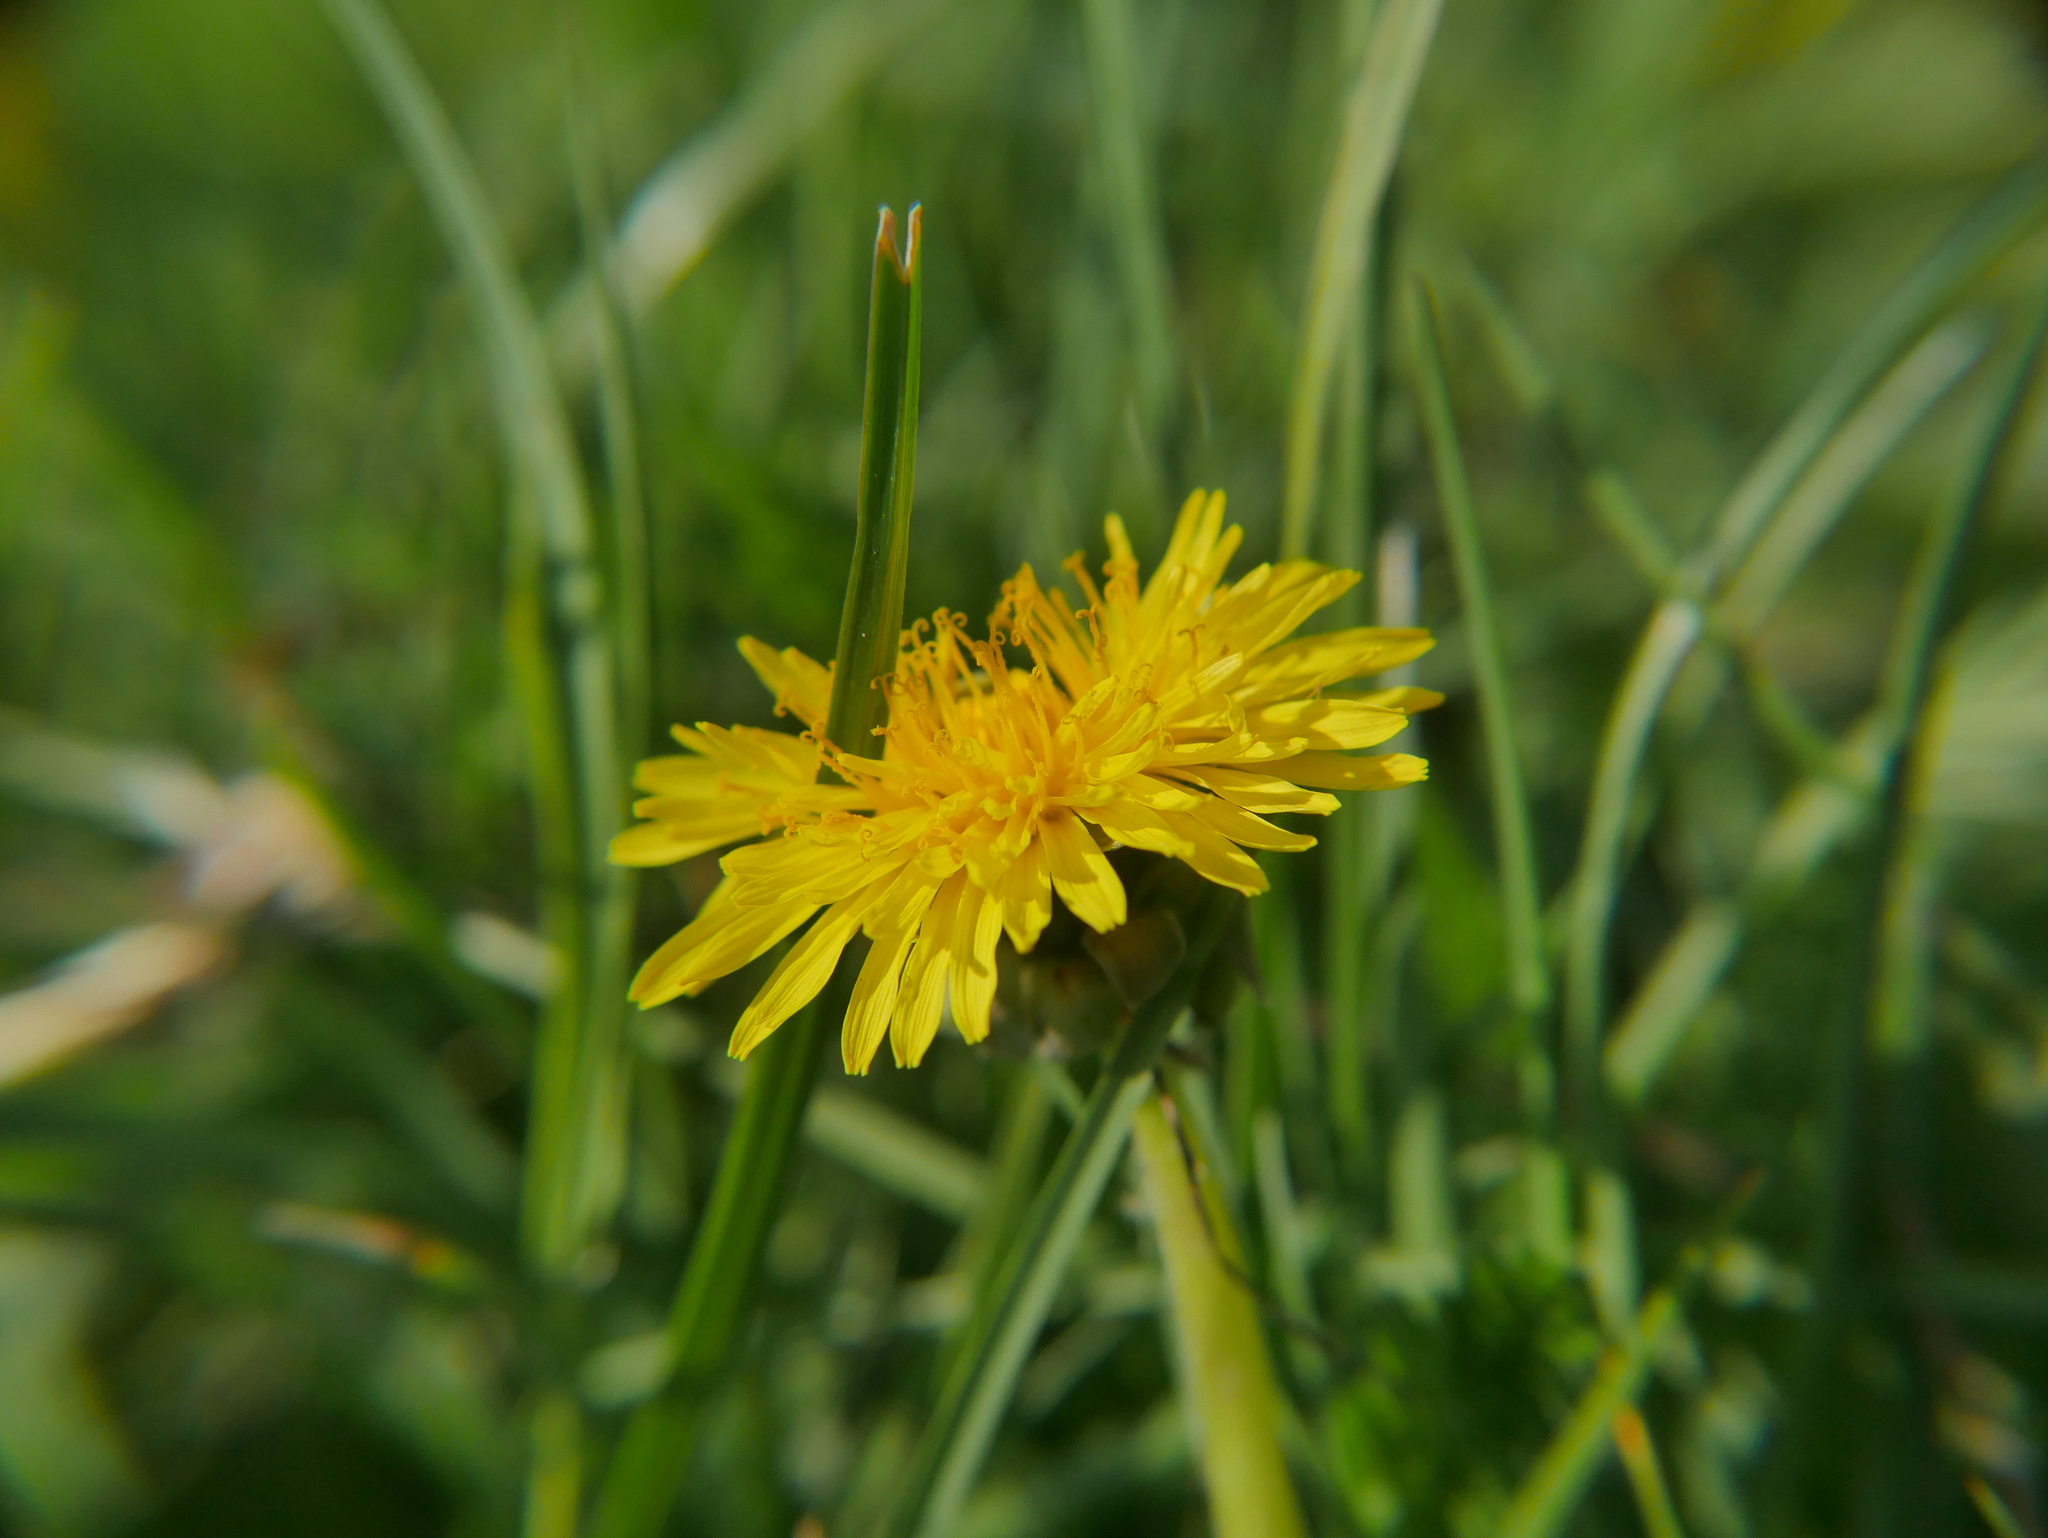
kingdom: Plantae
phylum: Tracheophyta
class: Magnoliopsida
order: Asterales
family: Asteraceae
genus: Taraxacum
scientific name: Taraxacum officinale
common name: Common dandelion
